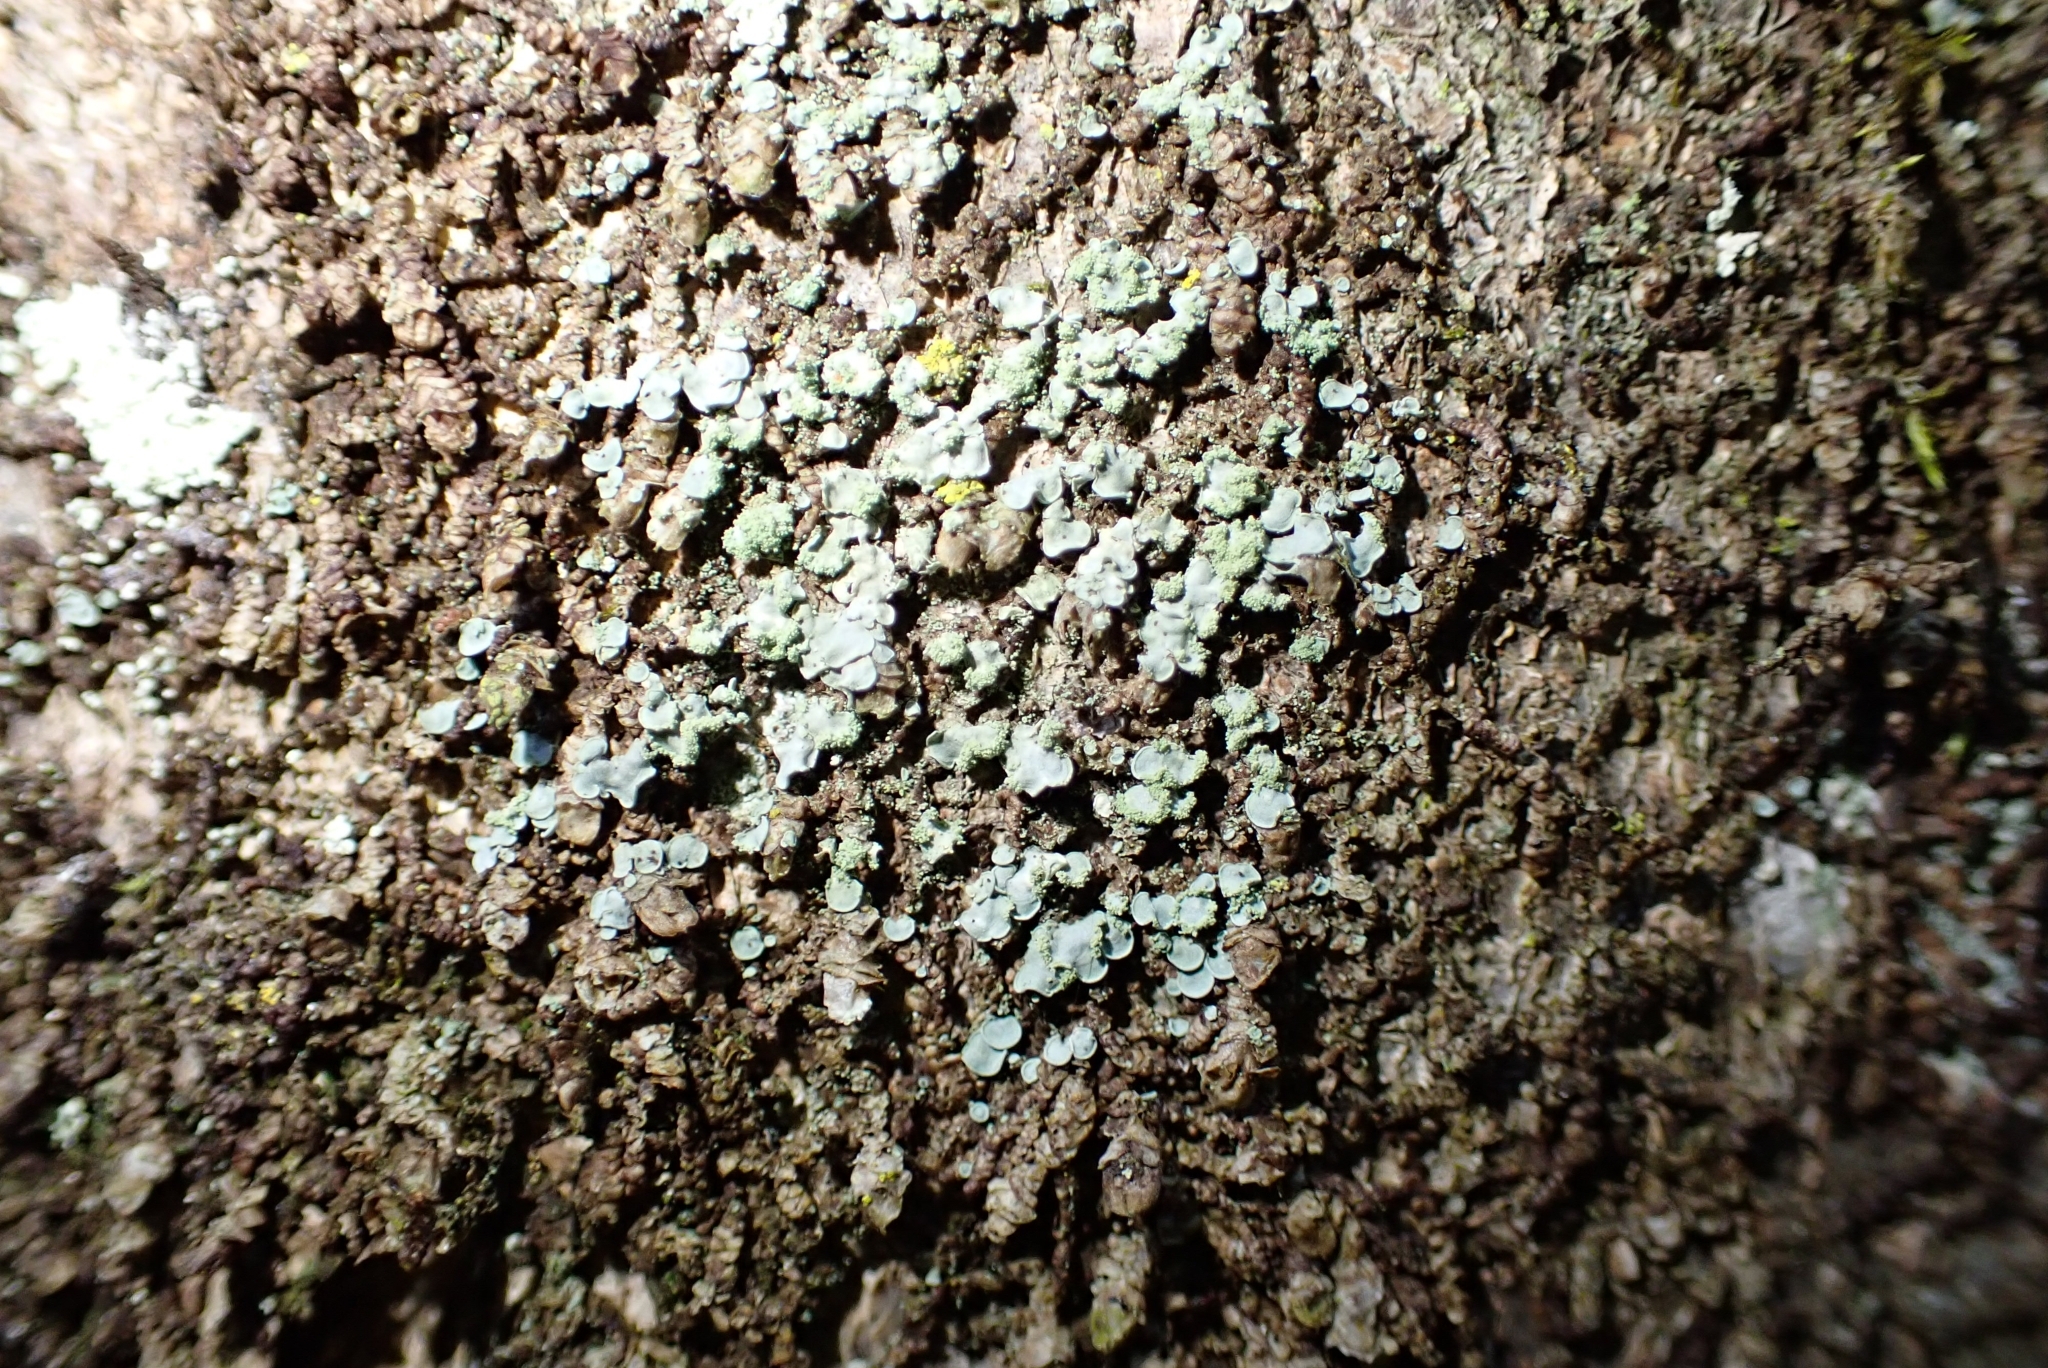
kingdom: Fungi
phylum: Ascomycota
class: Eurotiomycetes
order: Verrucariales
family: Verrucariaceae
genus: Normandina
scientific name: Normandina pulchella
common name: Elf ears lichen
